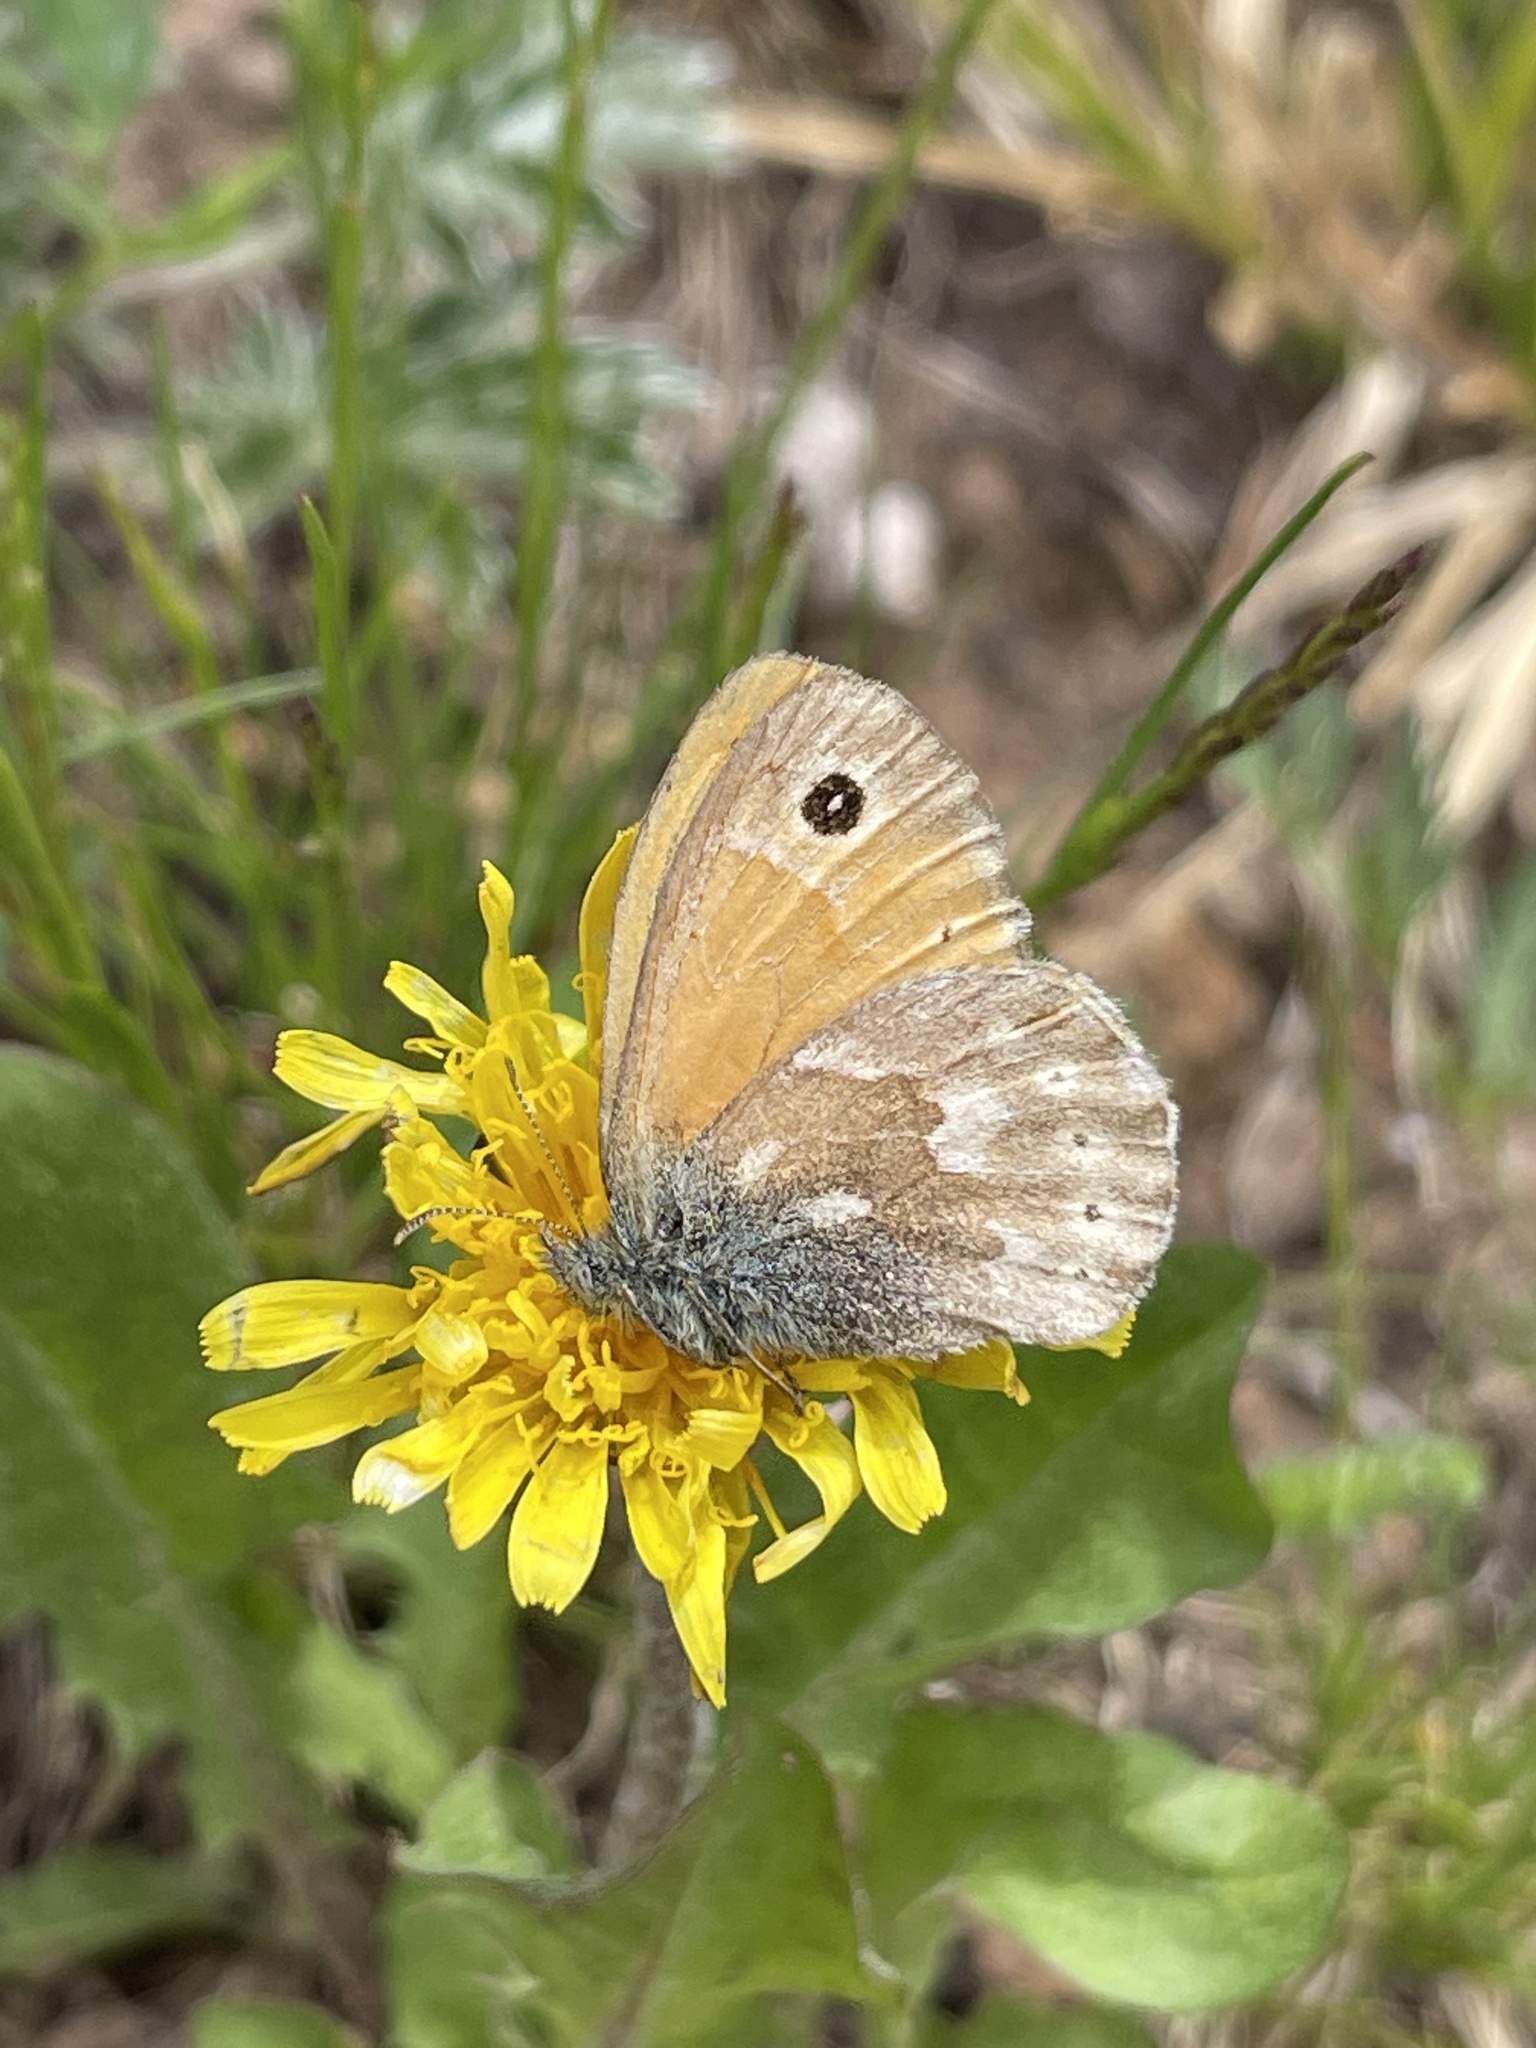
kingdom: Animalia
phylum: Arthropoda
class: Insecta
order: Lepidoptera
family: Nymphalidae
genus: Coenonympha
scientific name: Coenonympha california
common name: Common ringlet
